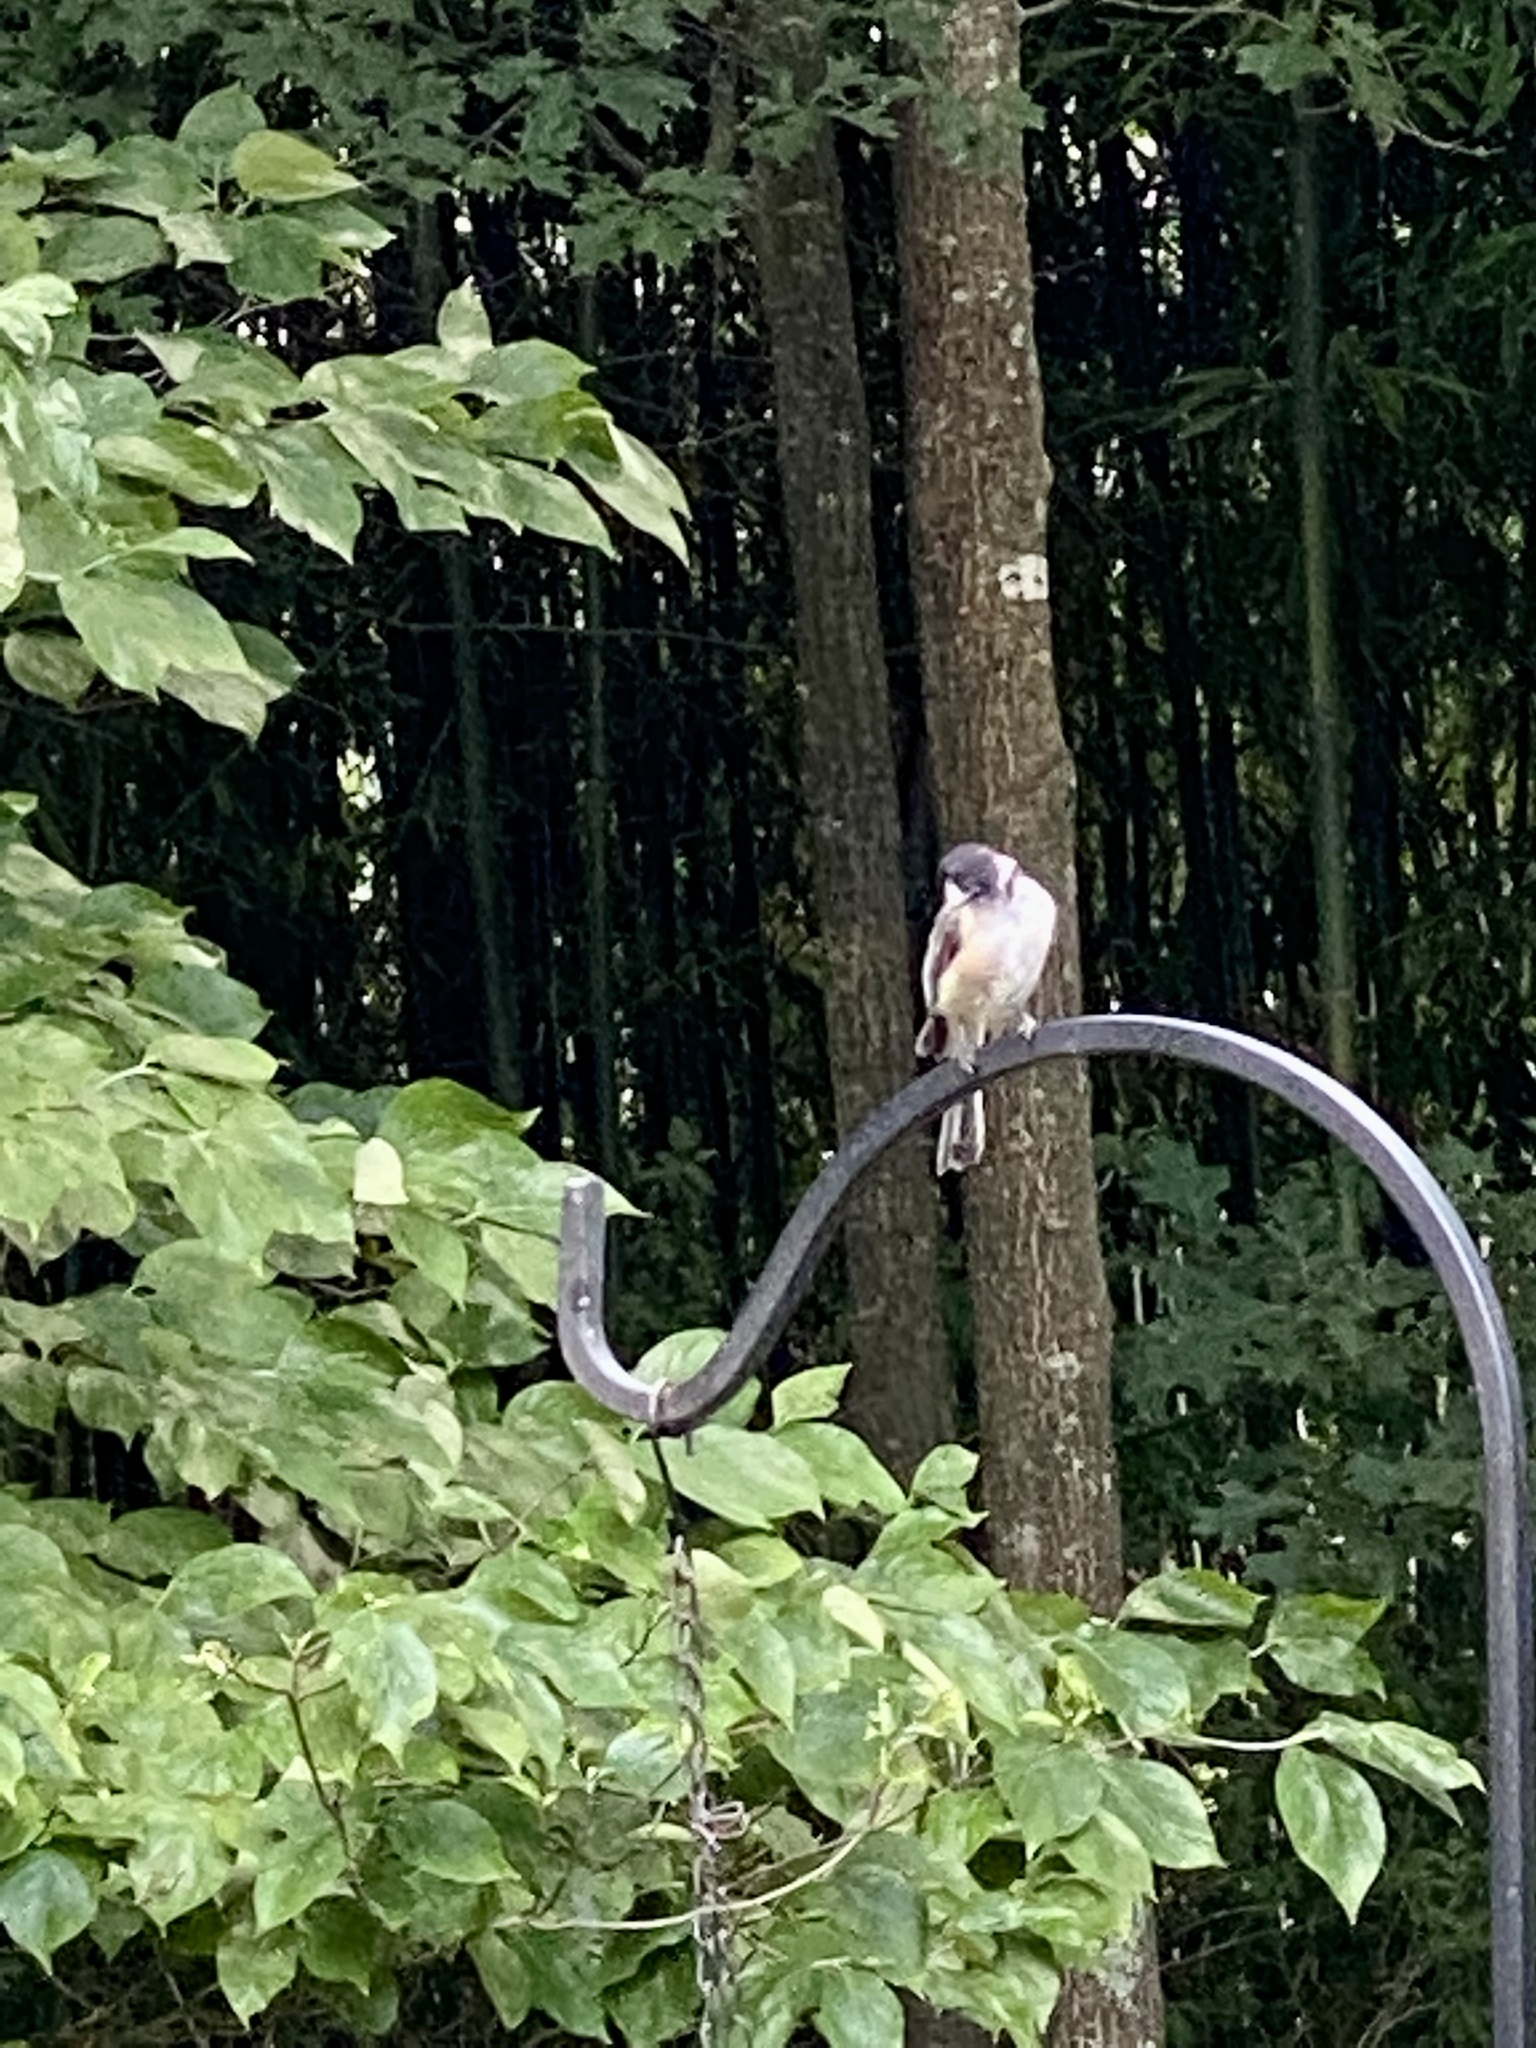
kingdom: Animalia
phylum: Chordata
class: Aves
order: Passeriformes
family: Paridae
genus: Poecile
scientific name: Poecile atricapillus
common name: Black-capped chickadee
